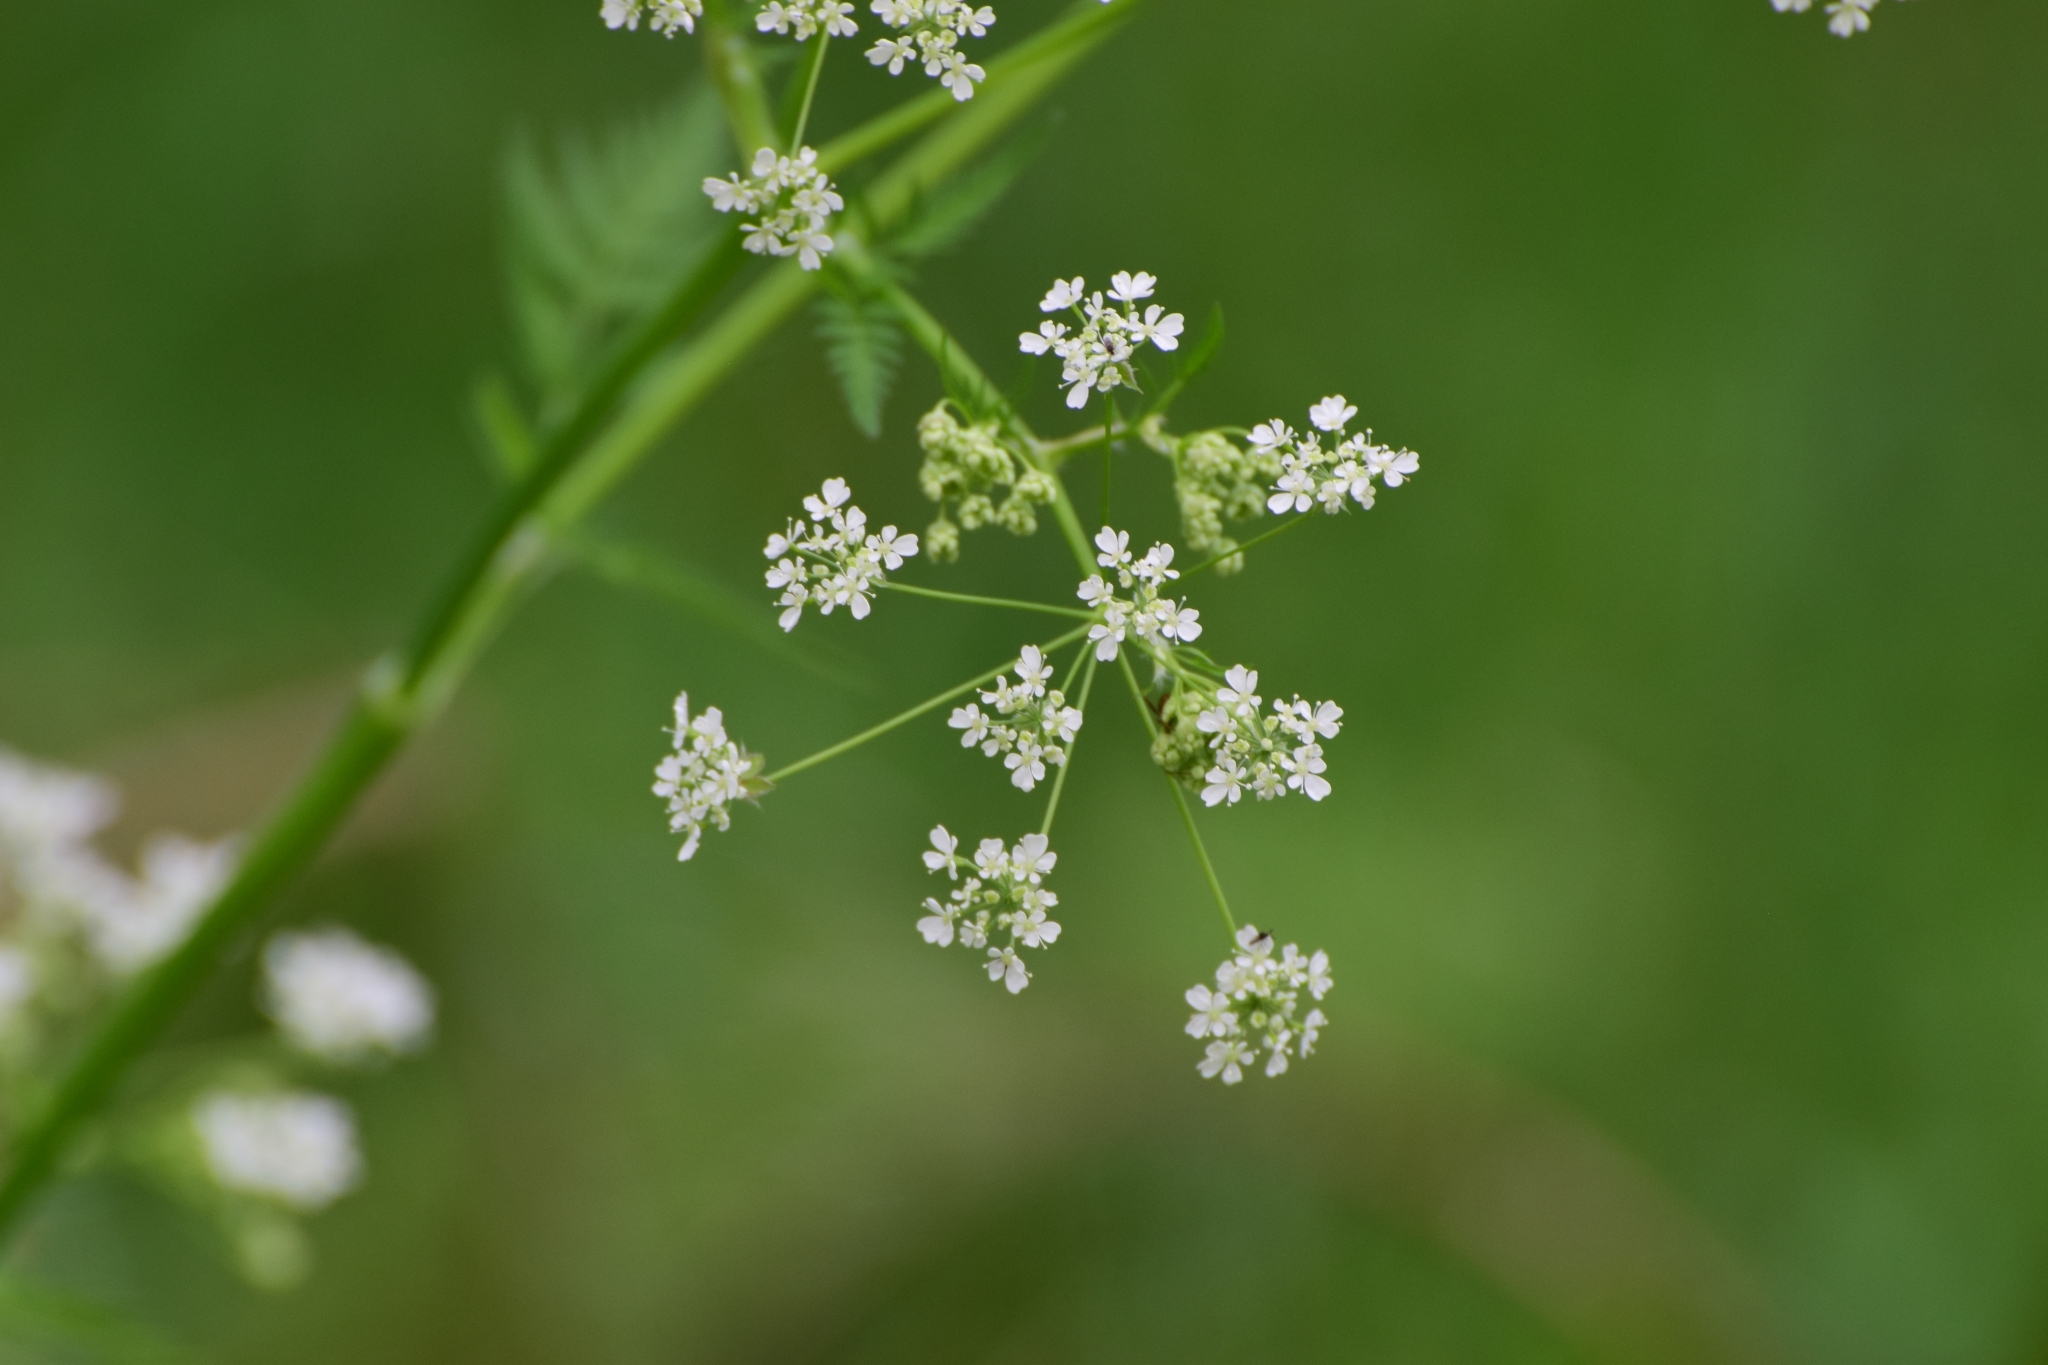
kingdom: Plantae
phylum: Tracheophyta
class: Magnoliopsida
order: Apiales
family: Apiaceae
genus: Anthriscus
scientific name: Anthriscus sylvestris
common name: Cow parsley
